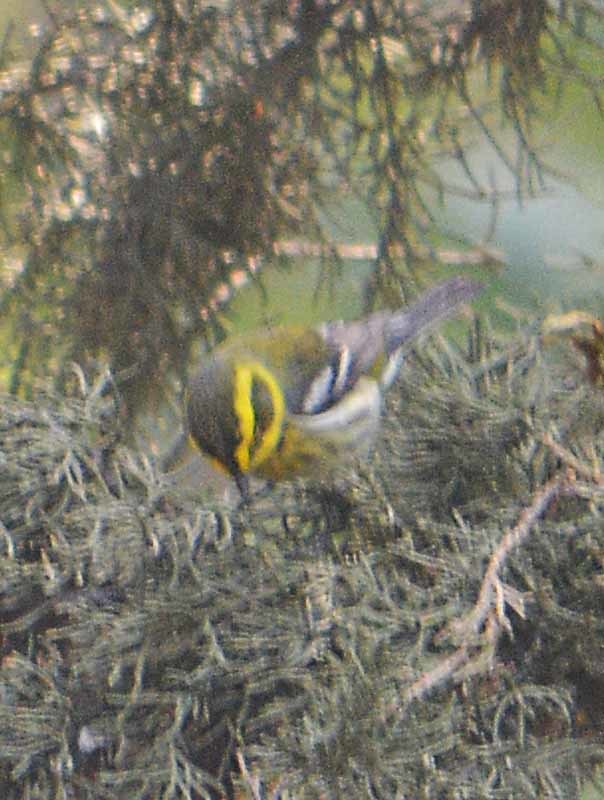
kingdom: Animalia
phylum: Chordata
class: Aves
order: Passeriformes
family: Parulidae
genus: Setophaga
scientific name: Setophaga townsendi
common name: Townsend's warbler
